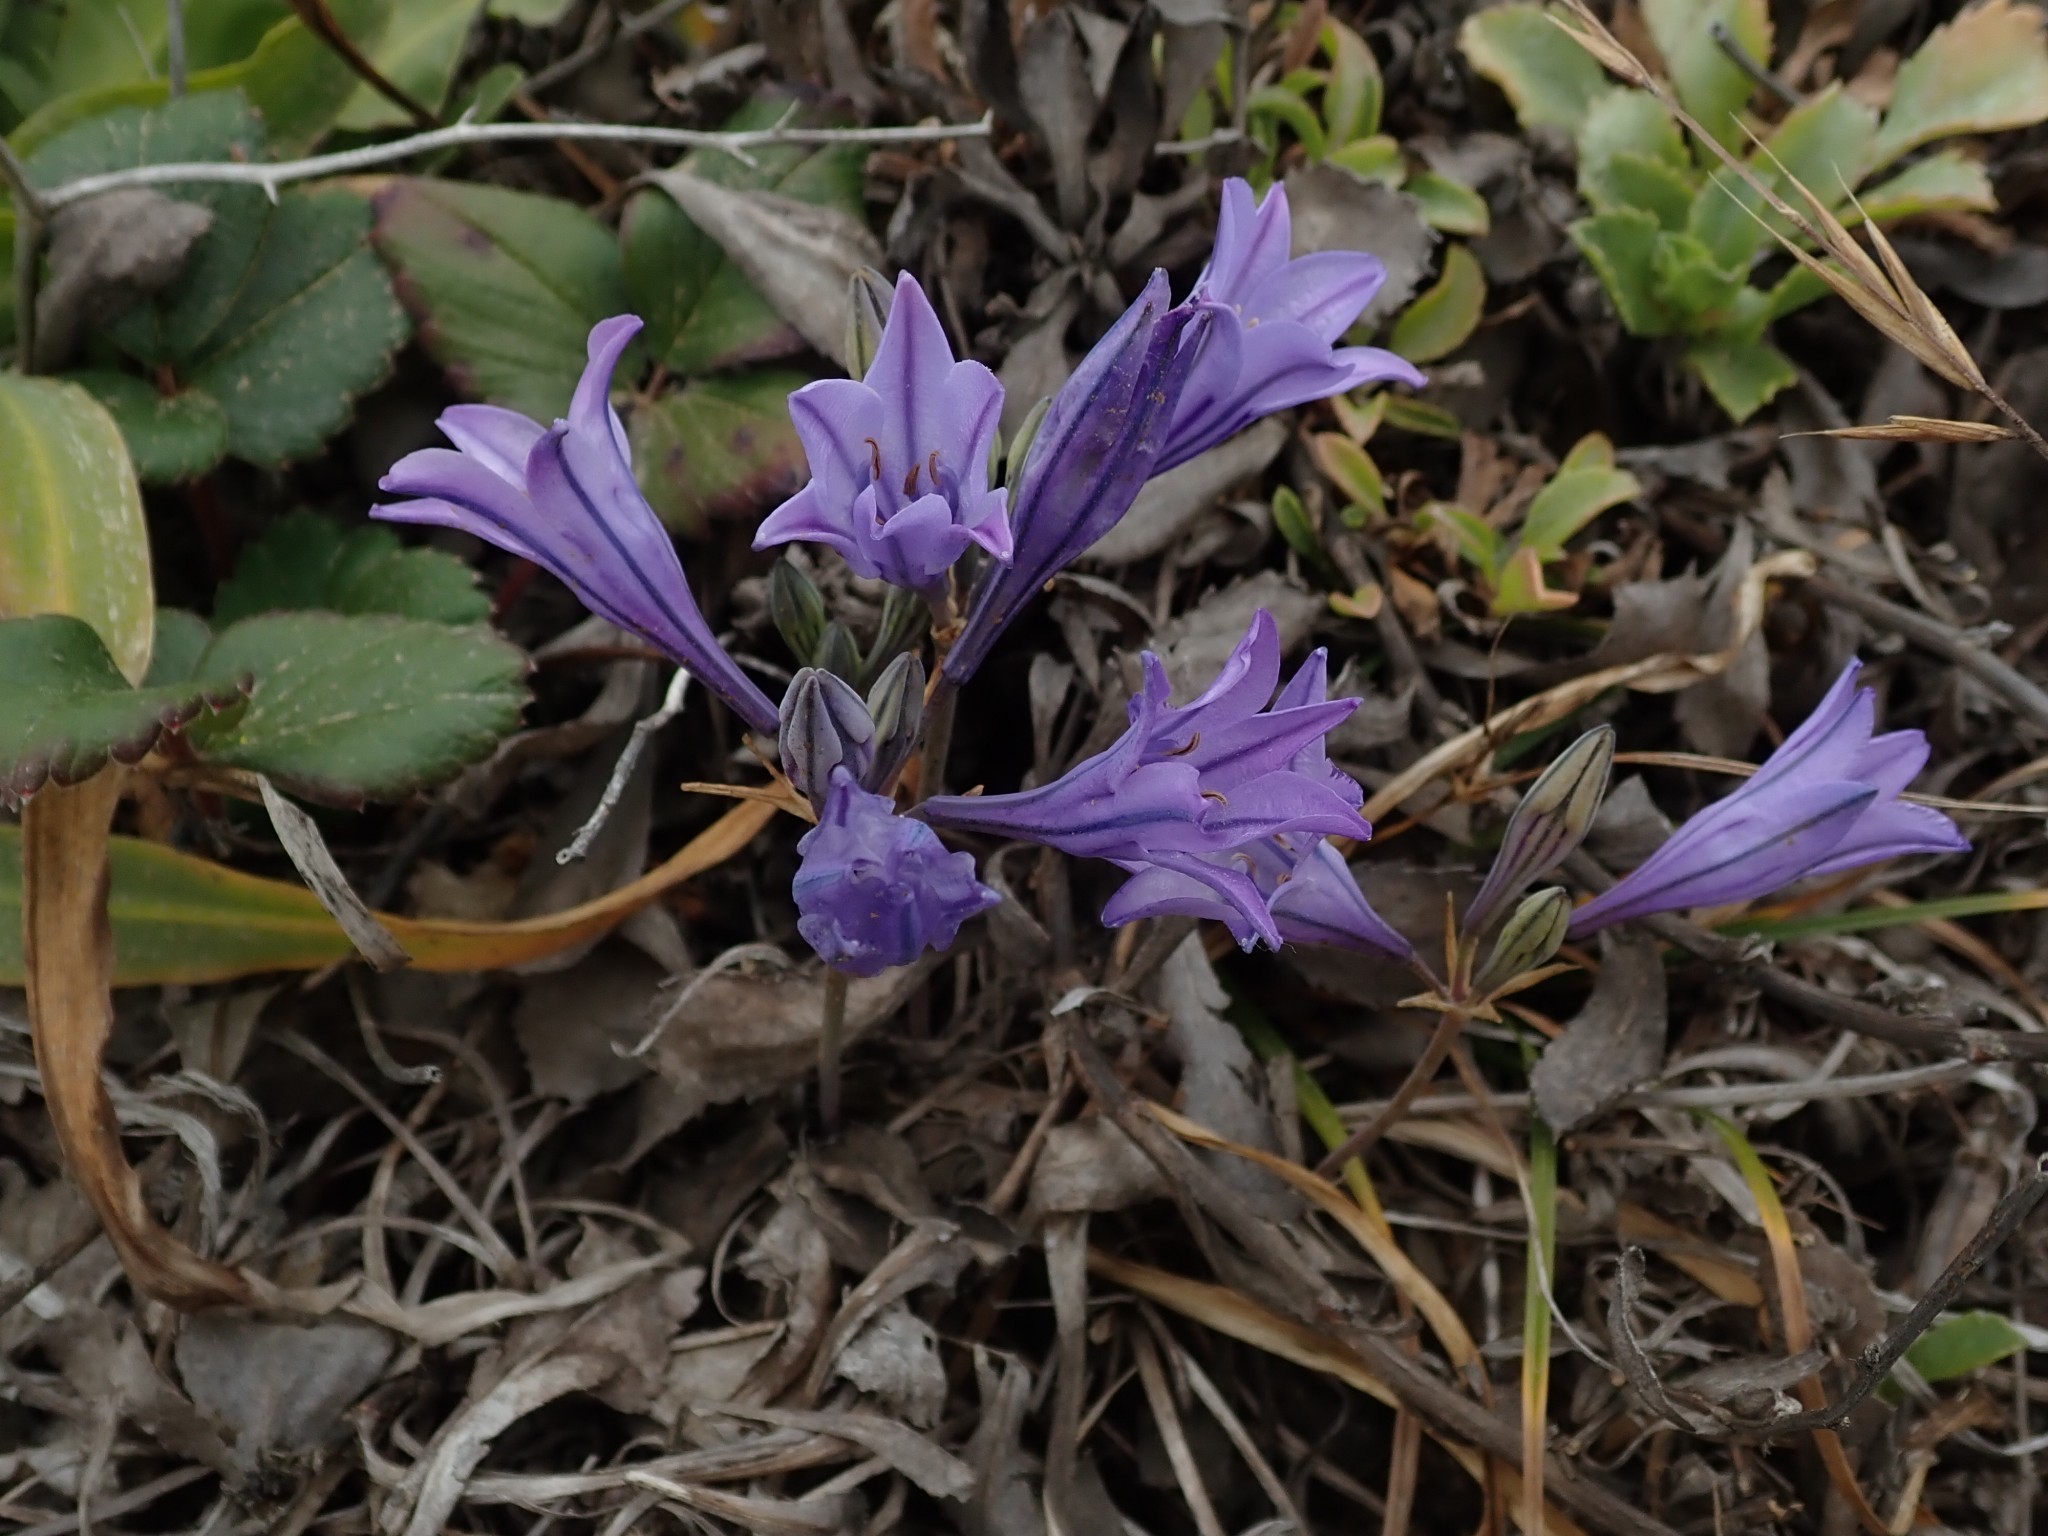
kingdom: Plantae
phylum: Tracheophyta
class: Liliopsida
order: Asparagales
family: Asparagaceae
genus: Triteleia
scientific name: Triteleia laxa
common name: Triplet-lily
